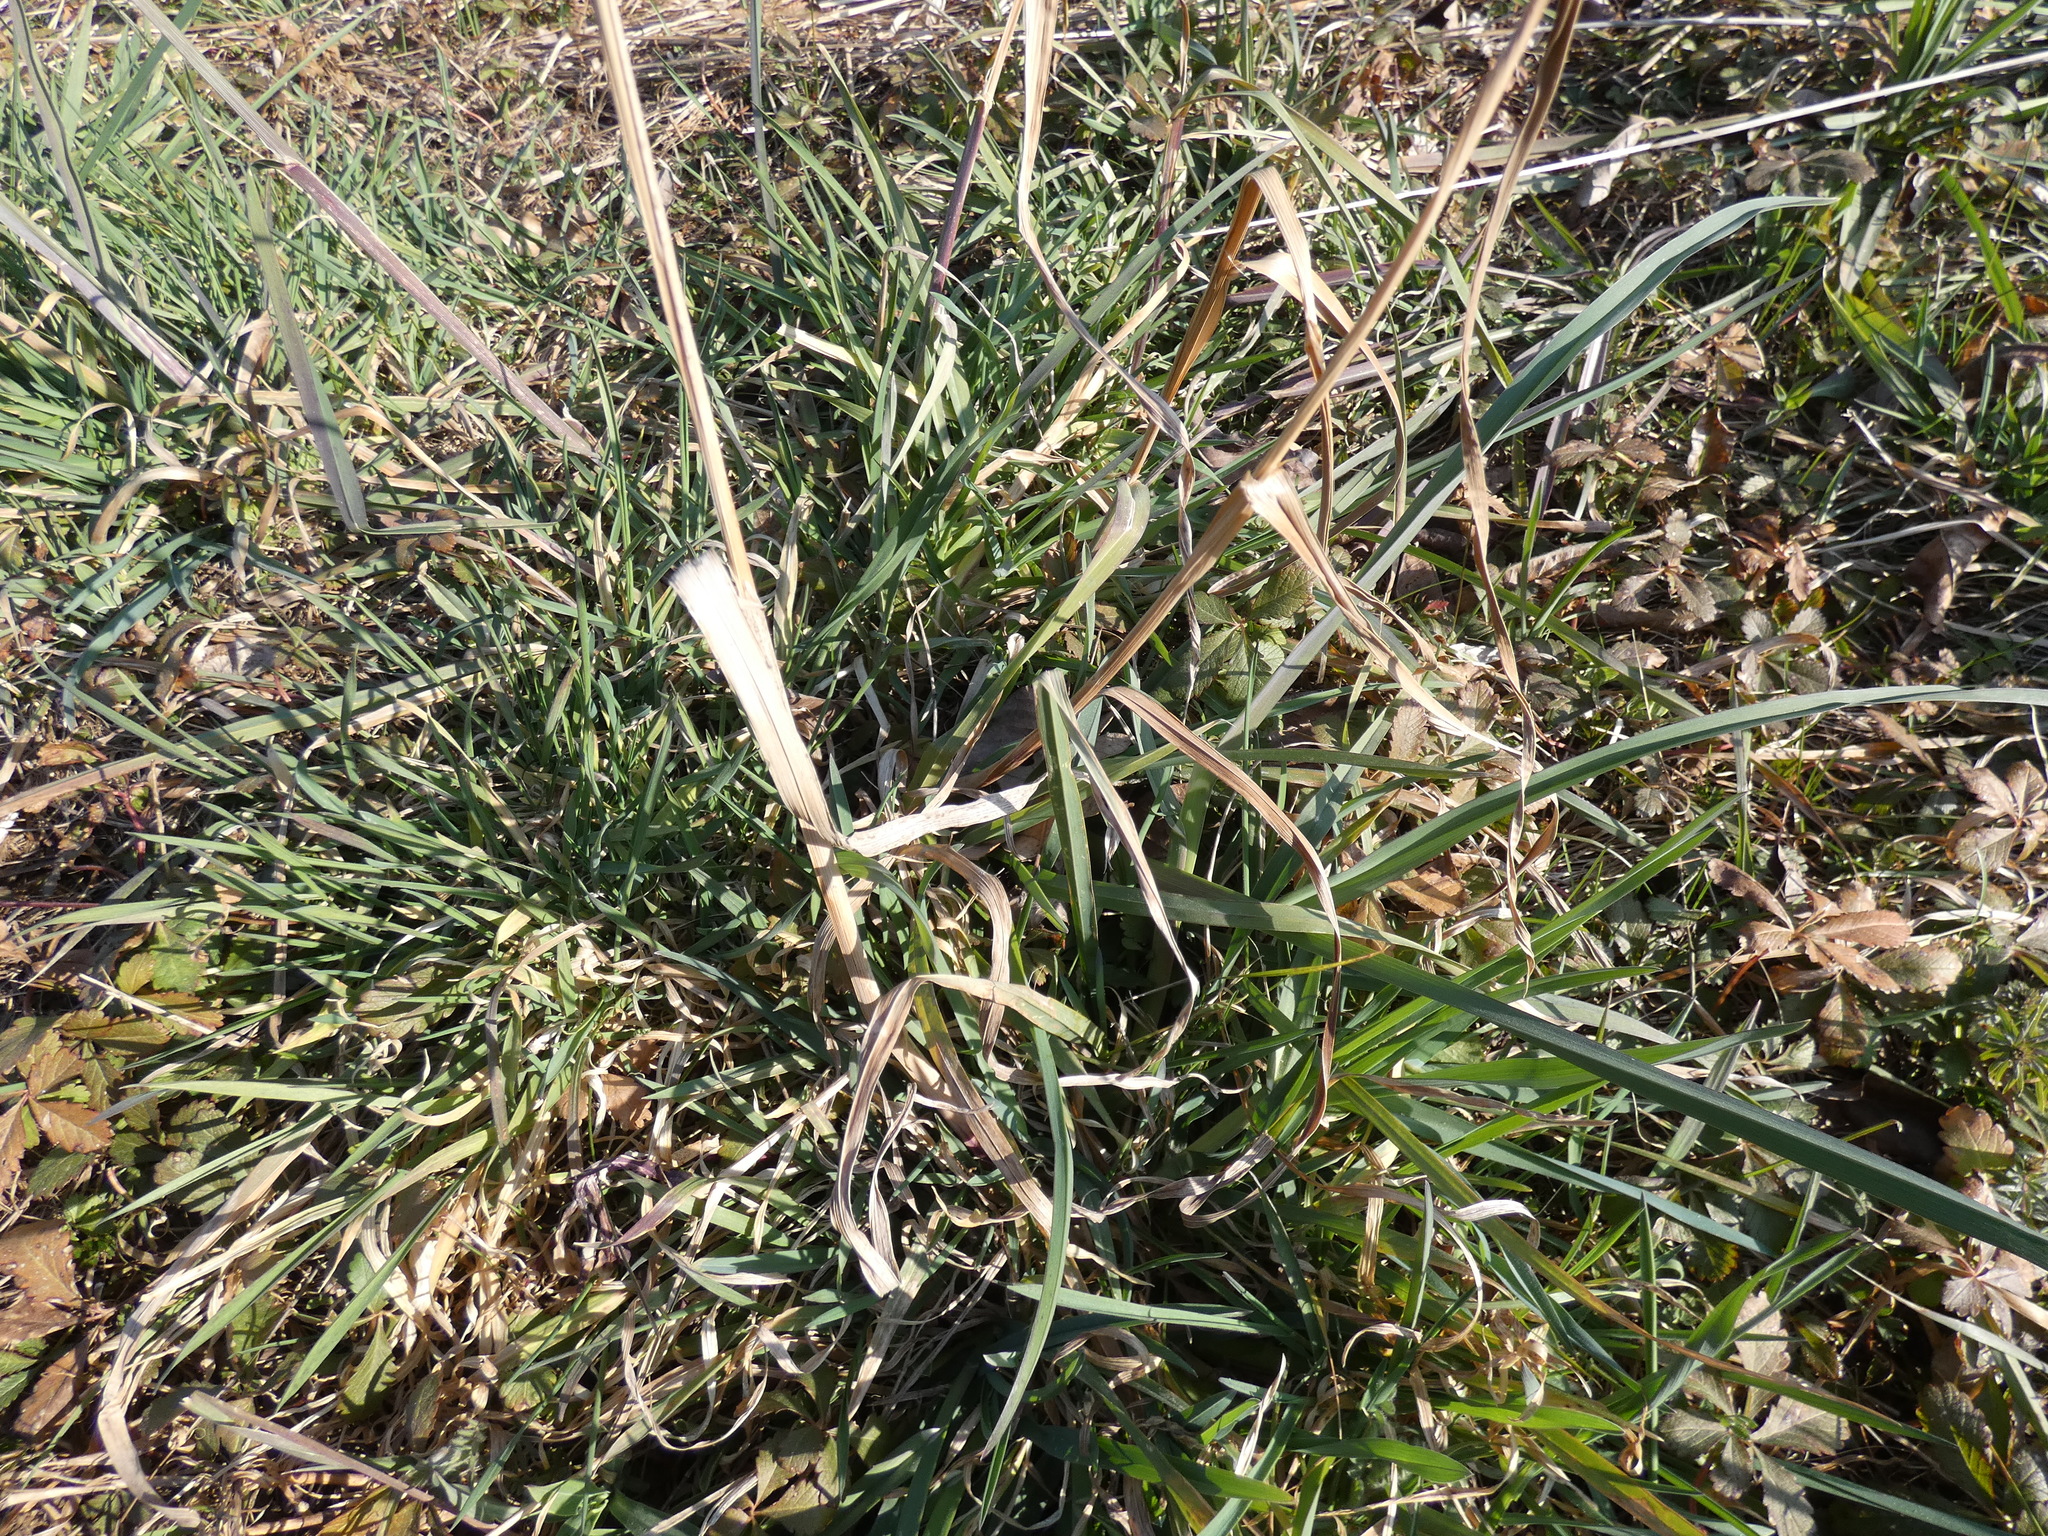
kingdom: Plantae
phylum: Tracheophyta
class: Liliopsida
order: Poales
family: Poaceae
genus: Dactylis
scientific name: Dactylis glomerata
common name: Orchardgrass
